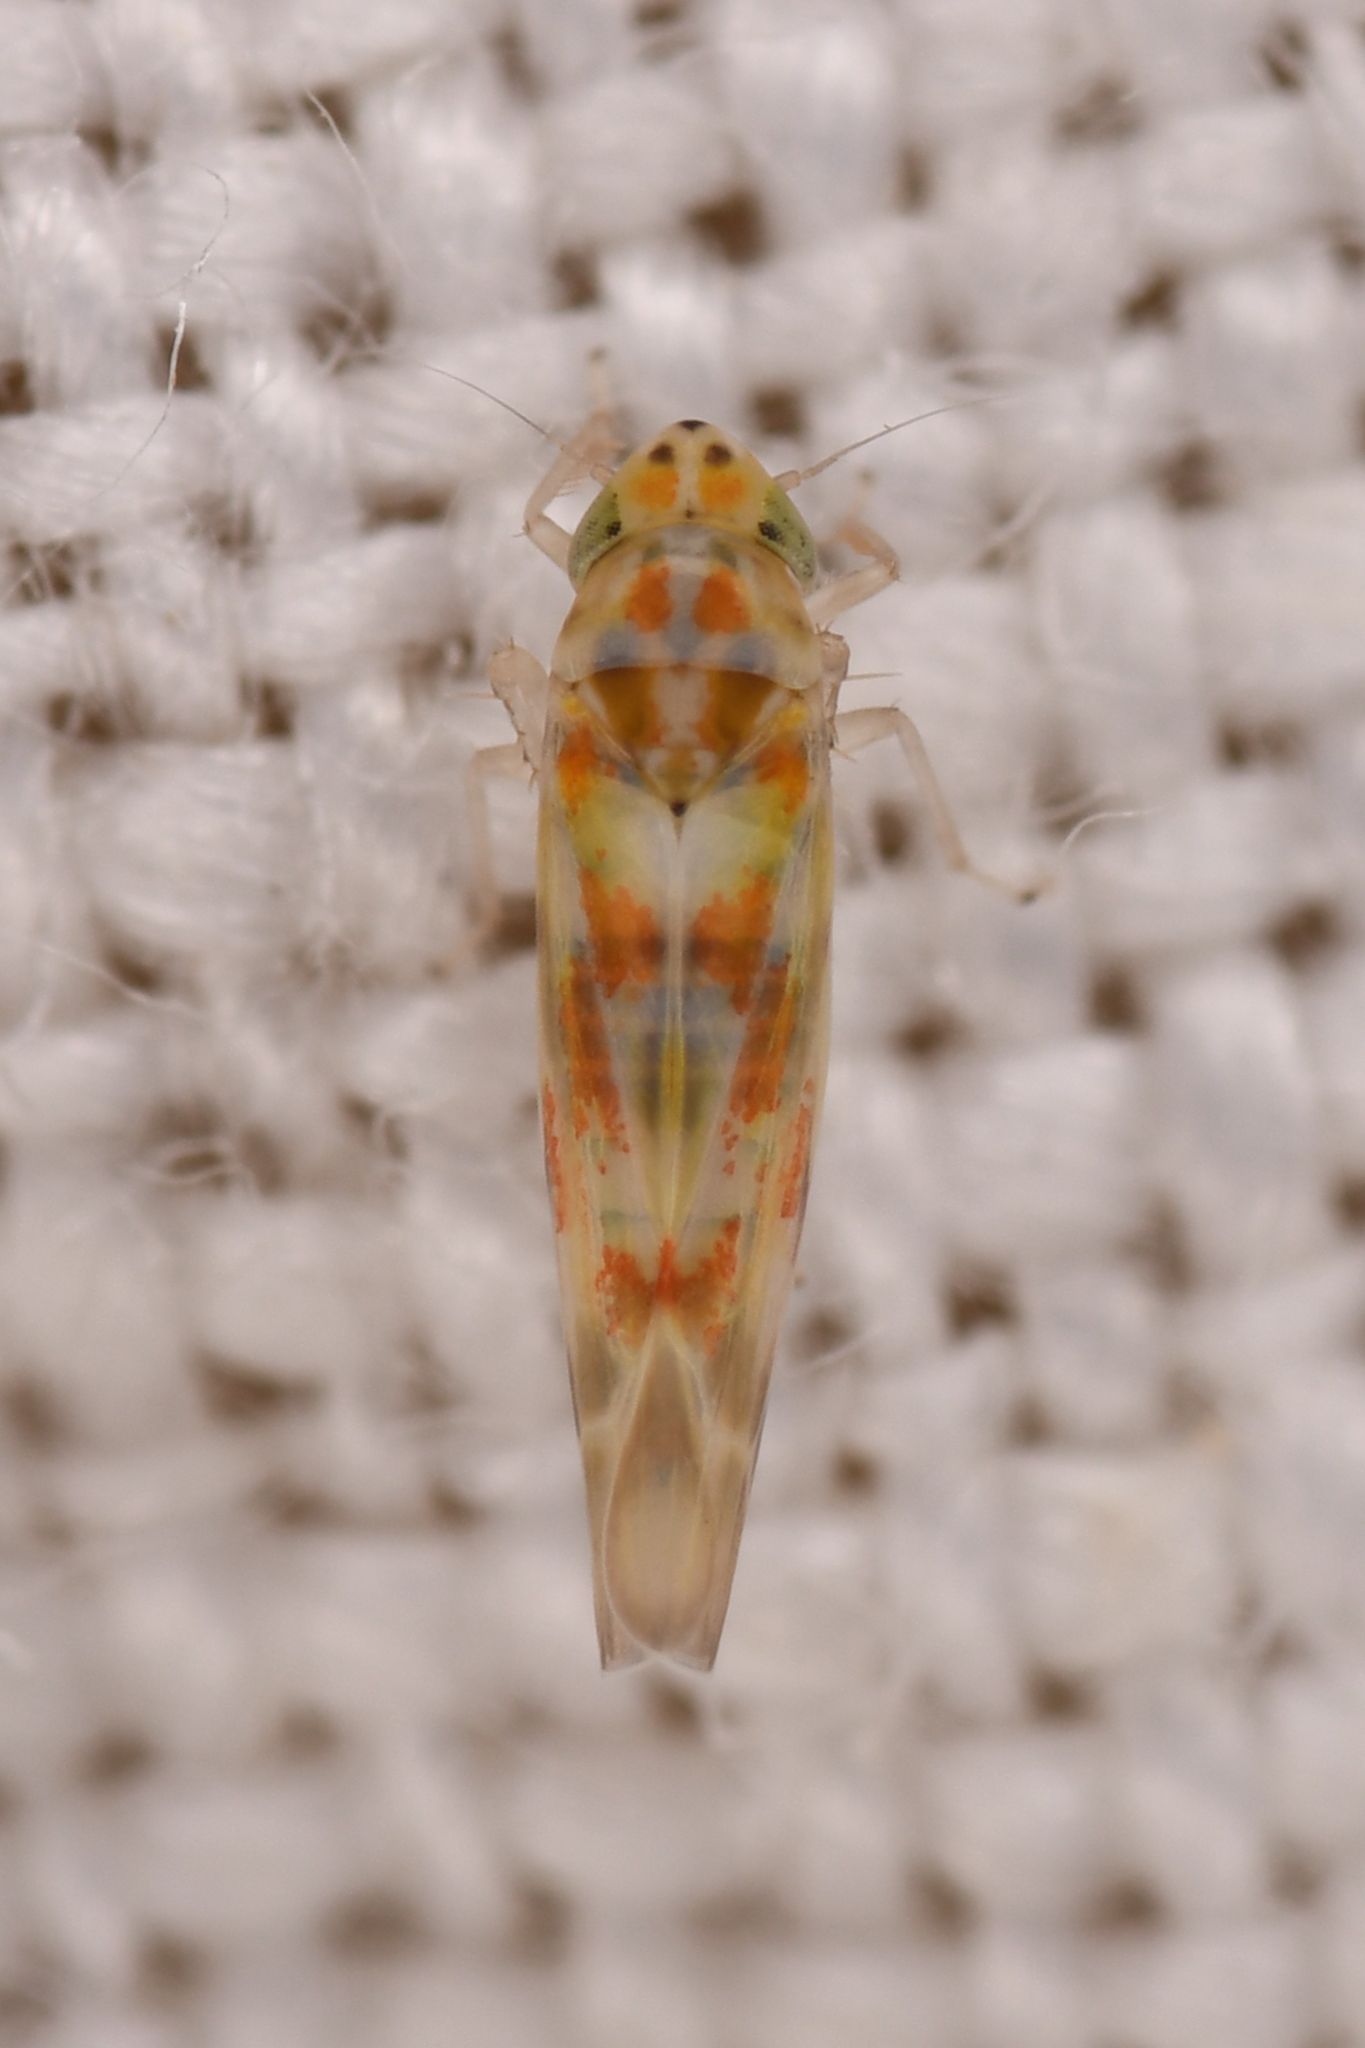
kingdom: Animalia
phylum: Arthropoda
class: Insecta
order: Hemiptera
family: Cicadellidae
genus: Hepzygina
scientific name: Hepzygina aprica
